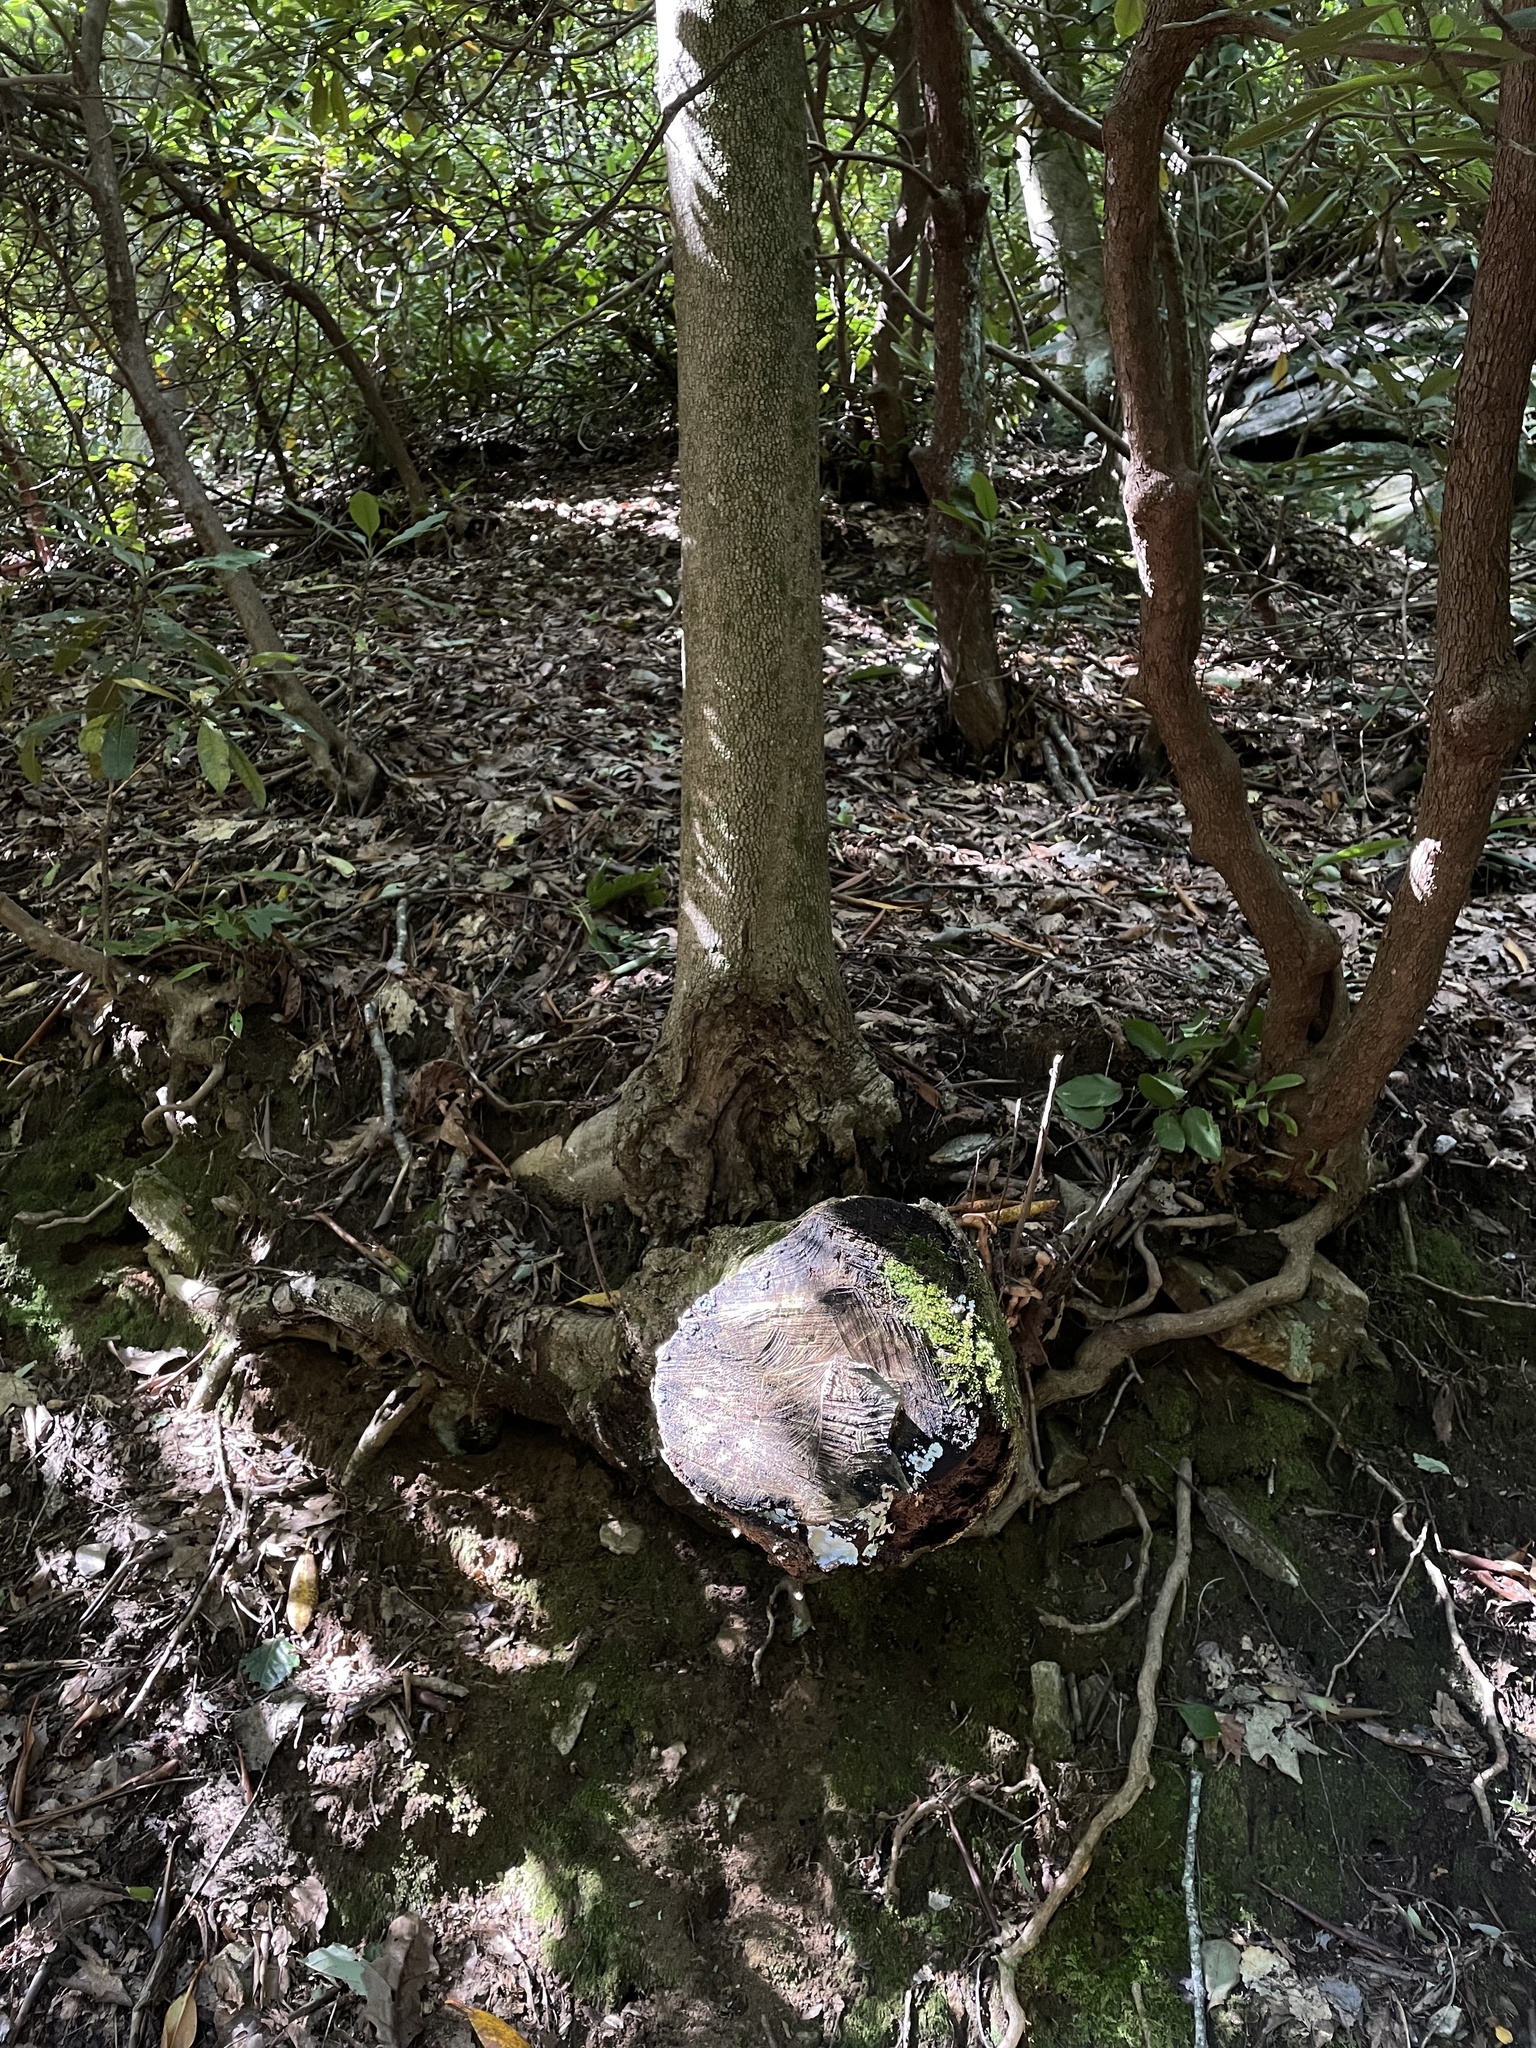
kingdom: Fungi
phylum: Basidiomycota
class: Agaricomycetes
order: Russulales
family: Hericiaceae
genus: Dentipellis
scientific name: Dentipellis dissita
